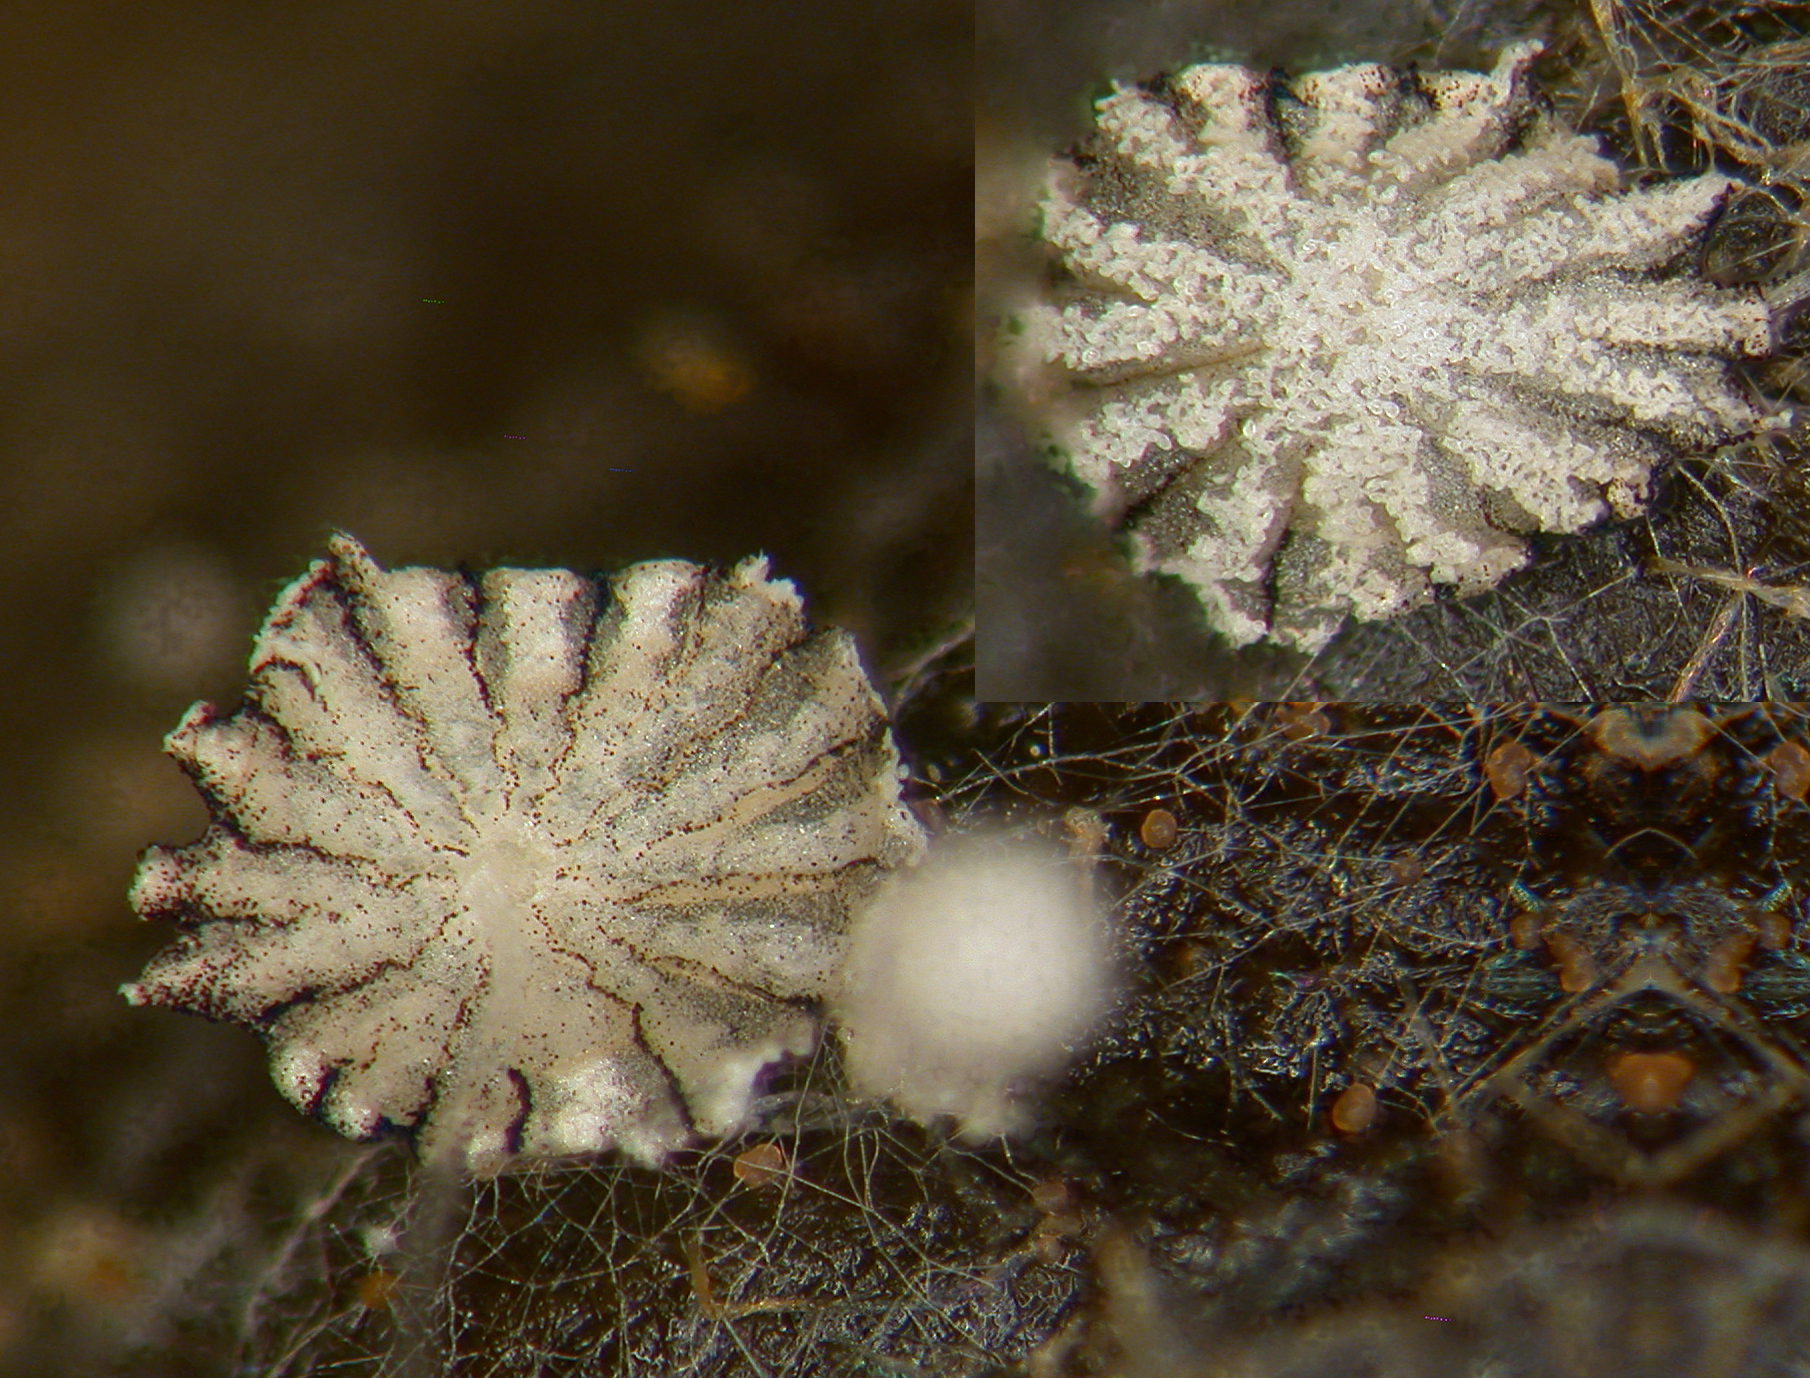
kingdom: Fungi
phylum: Basidiomycota
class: Agaricomycetes
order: Agaricales
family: Psathyrellaceae
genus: Coprinopsis
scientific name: Coprinopsis stercorea
